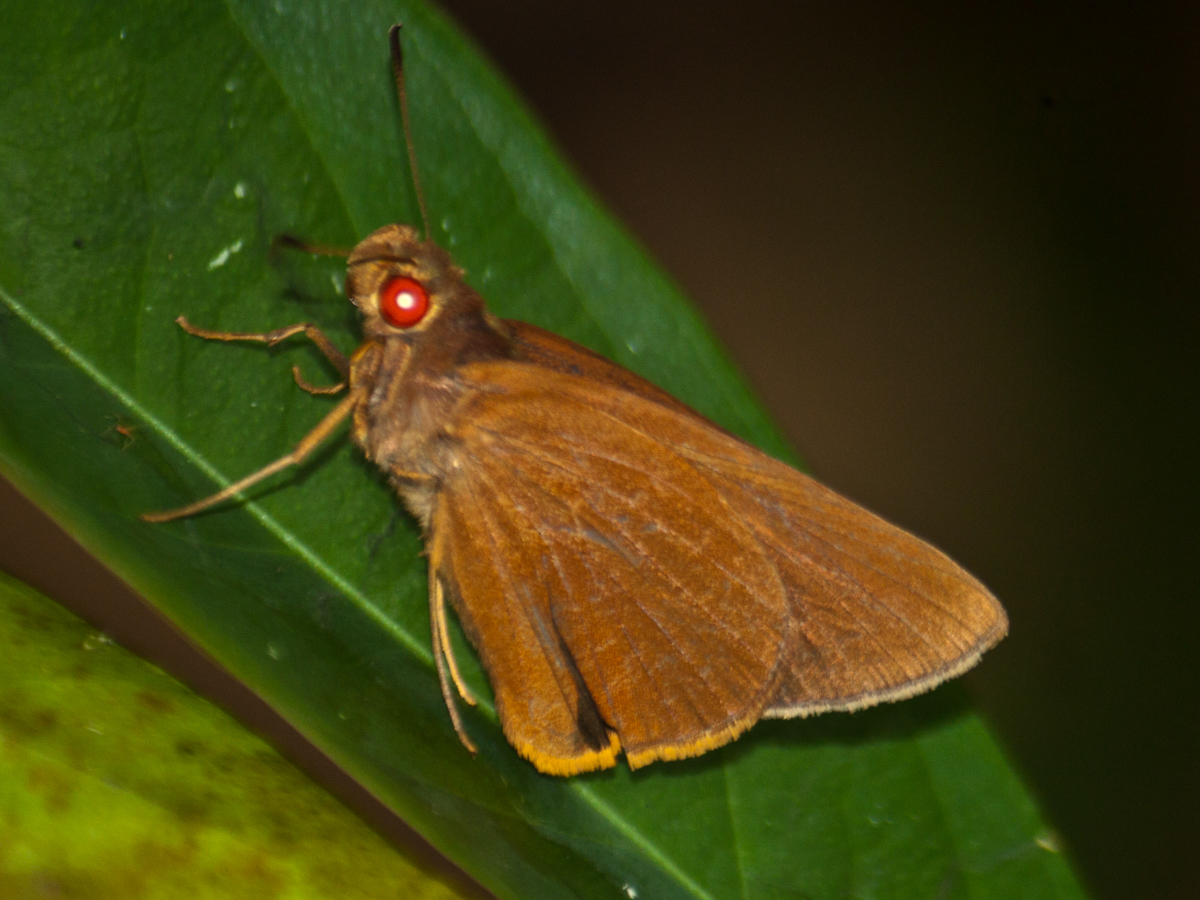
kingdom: Animalia
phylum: Arthropoda
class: Insecta
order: Lepidoptera
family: Hesperiidae
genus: Matapa
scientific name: Matapa druna
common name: Grey-brand redeye
